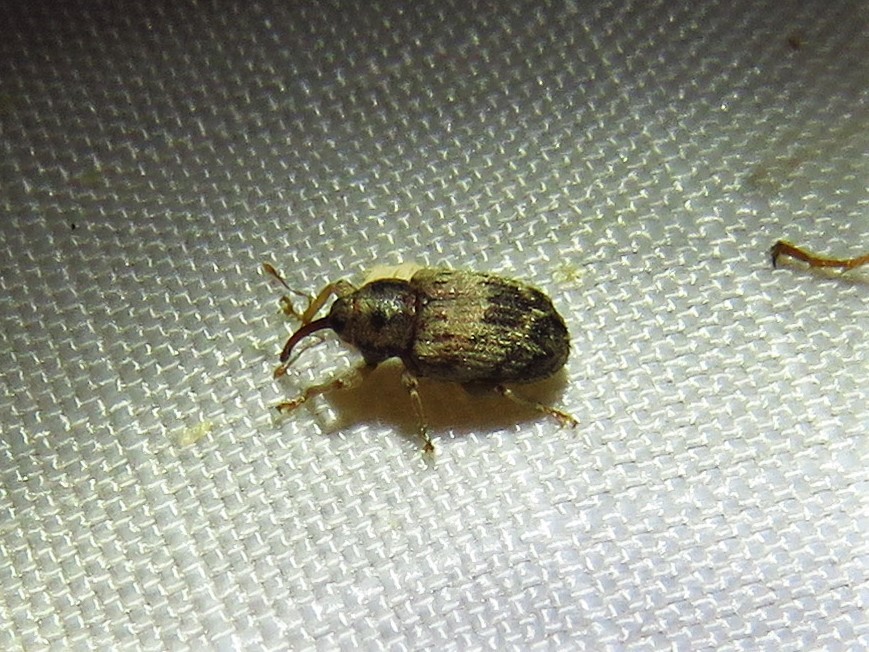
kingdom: Animalia
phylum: Arthropoda
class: Insecta
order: Coleoptera
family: Curculionidae
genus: Thysanocnemis
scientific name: Thysanocnemis bischoffi
